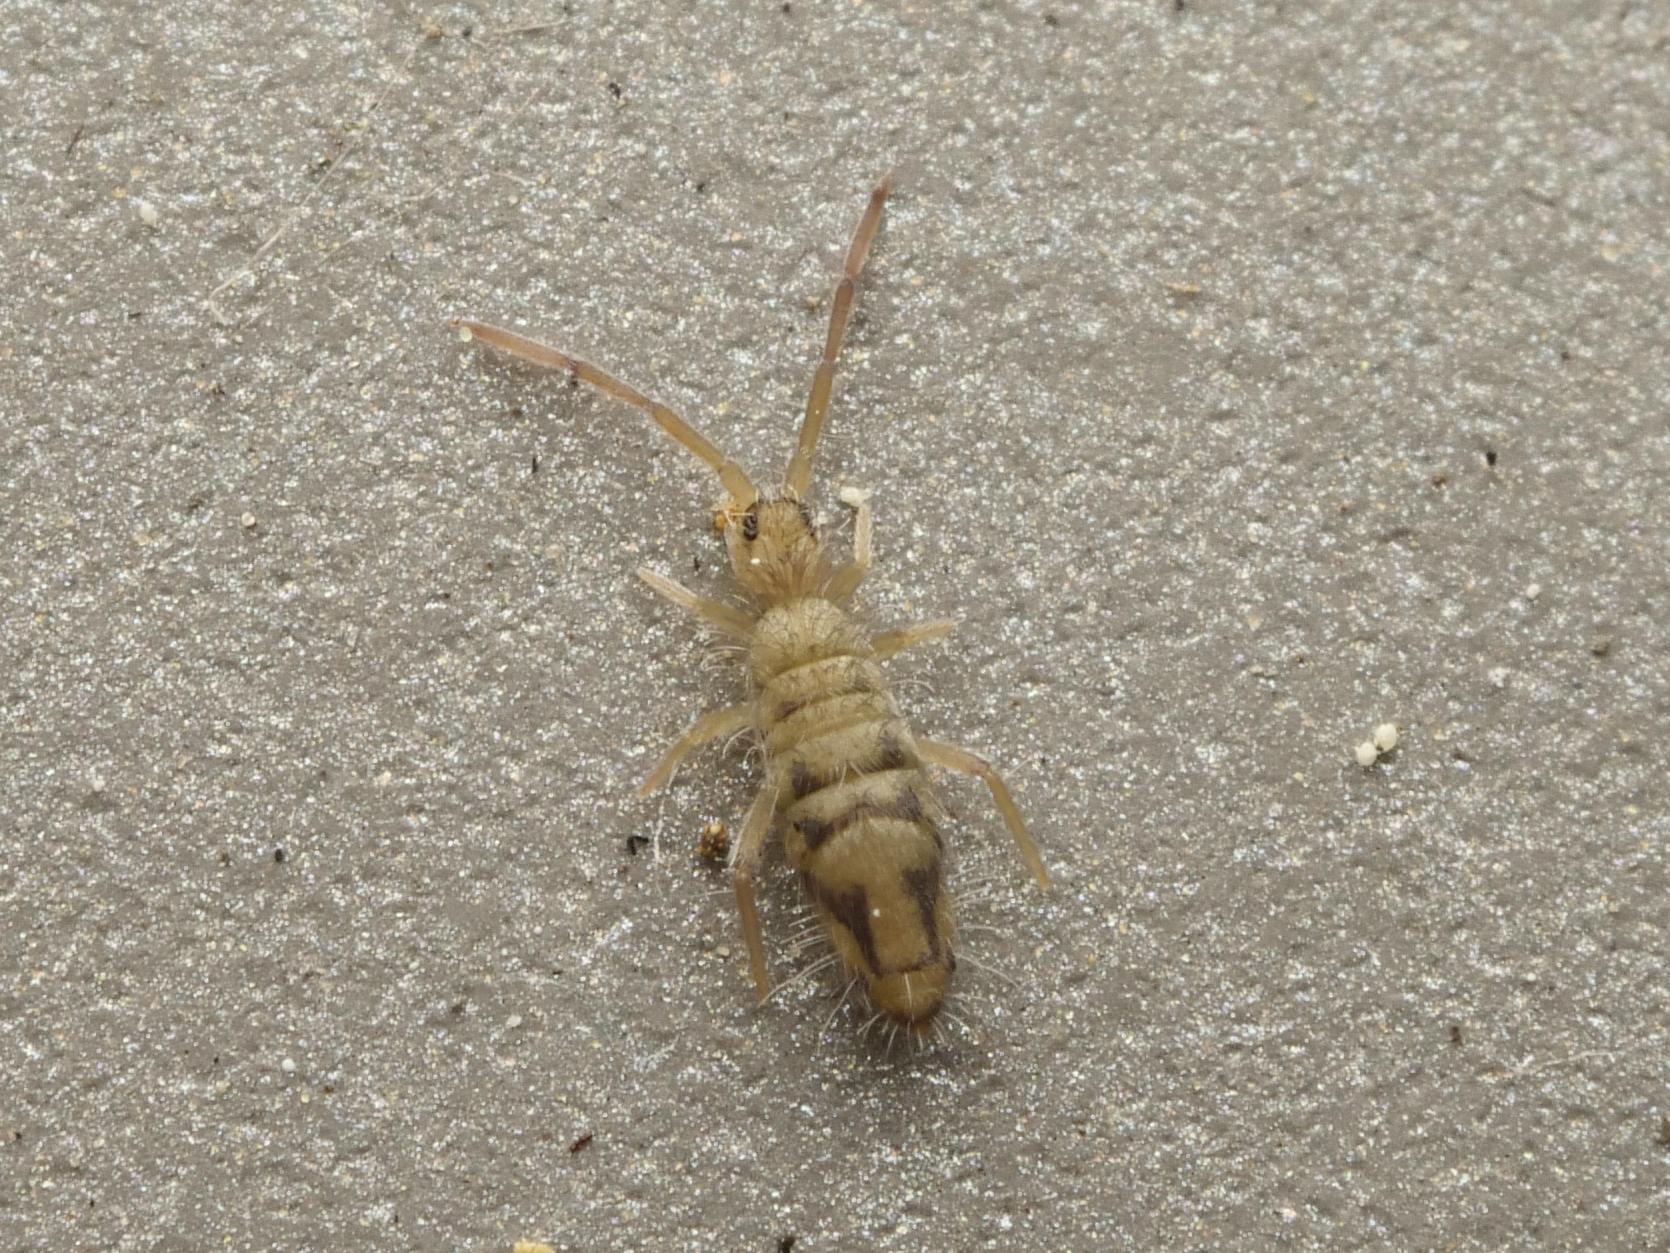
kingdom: Animalia
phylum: Arthropoda
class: Collembola
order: Entomobryomorpha
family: Entomobryidae
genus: Entomobrya
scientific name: Entomobrya nivalis
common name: Cosmopolitan springtail
